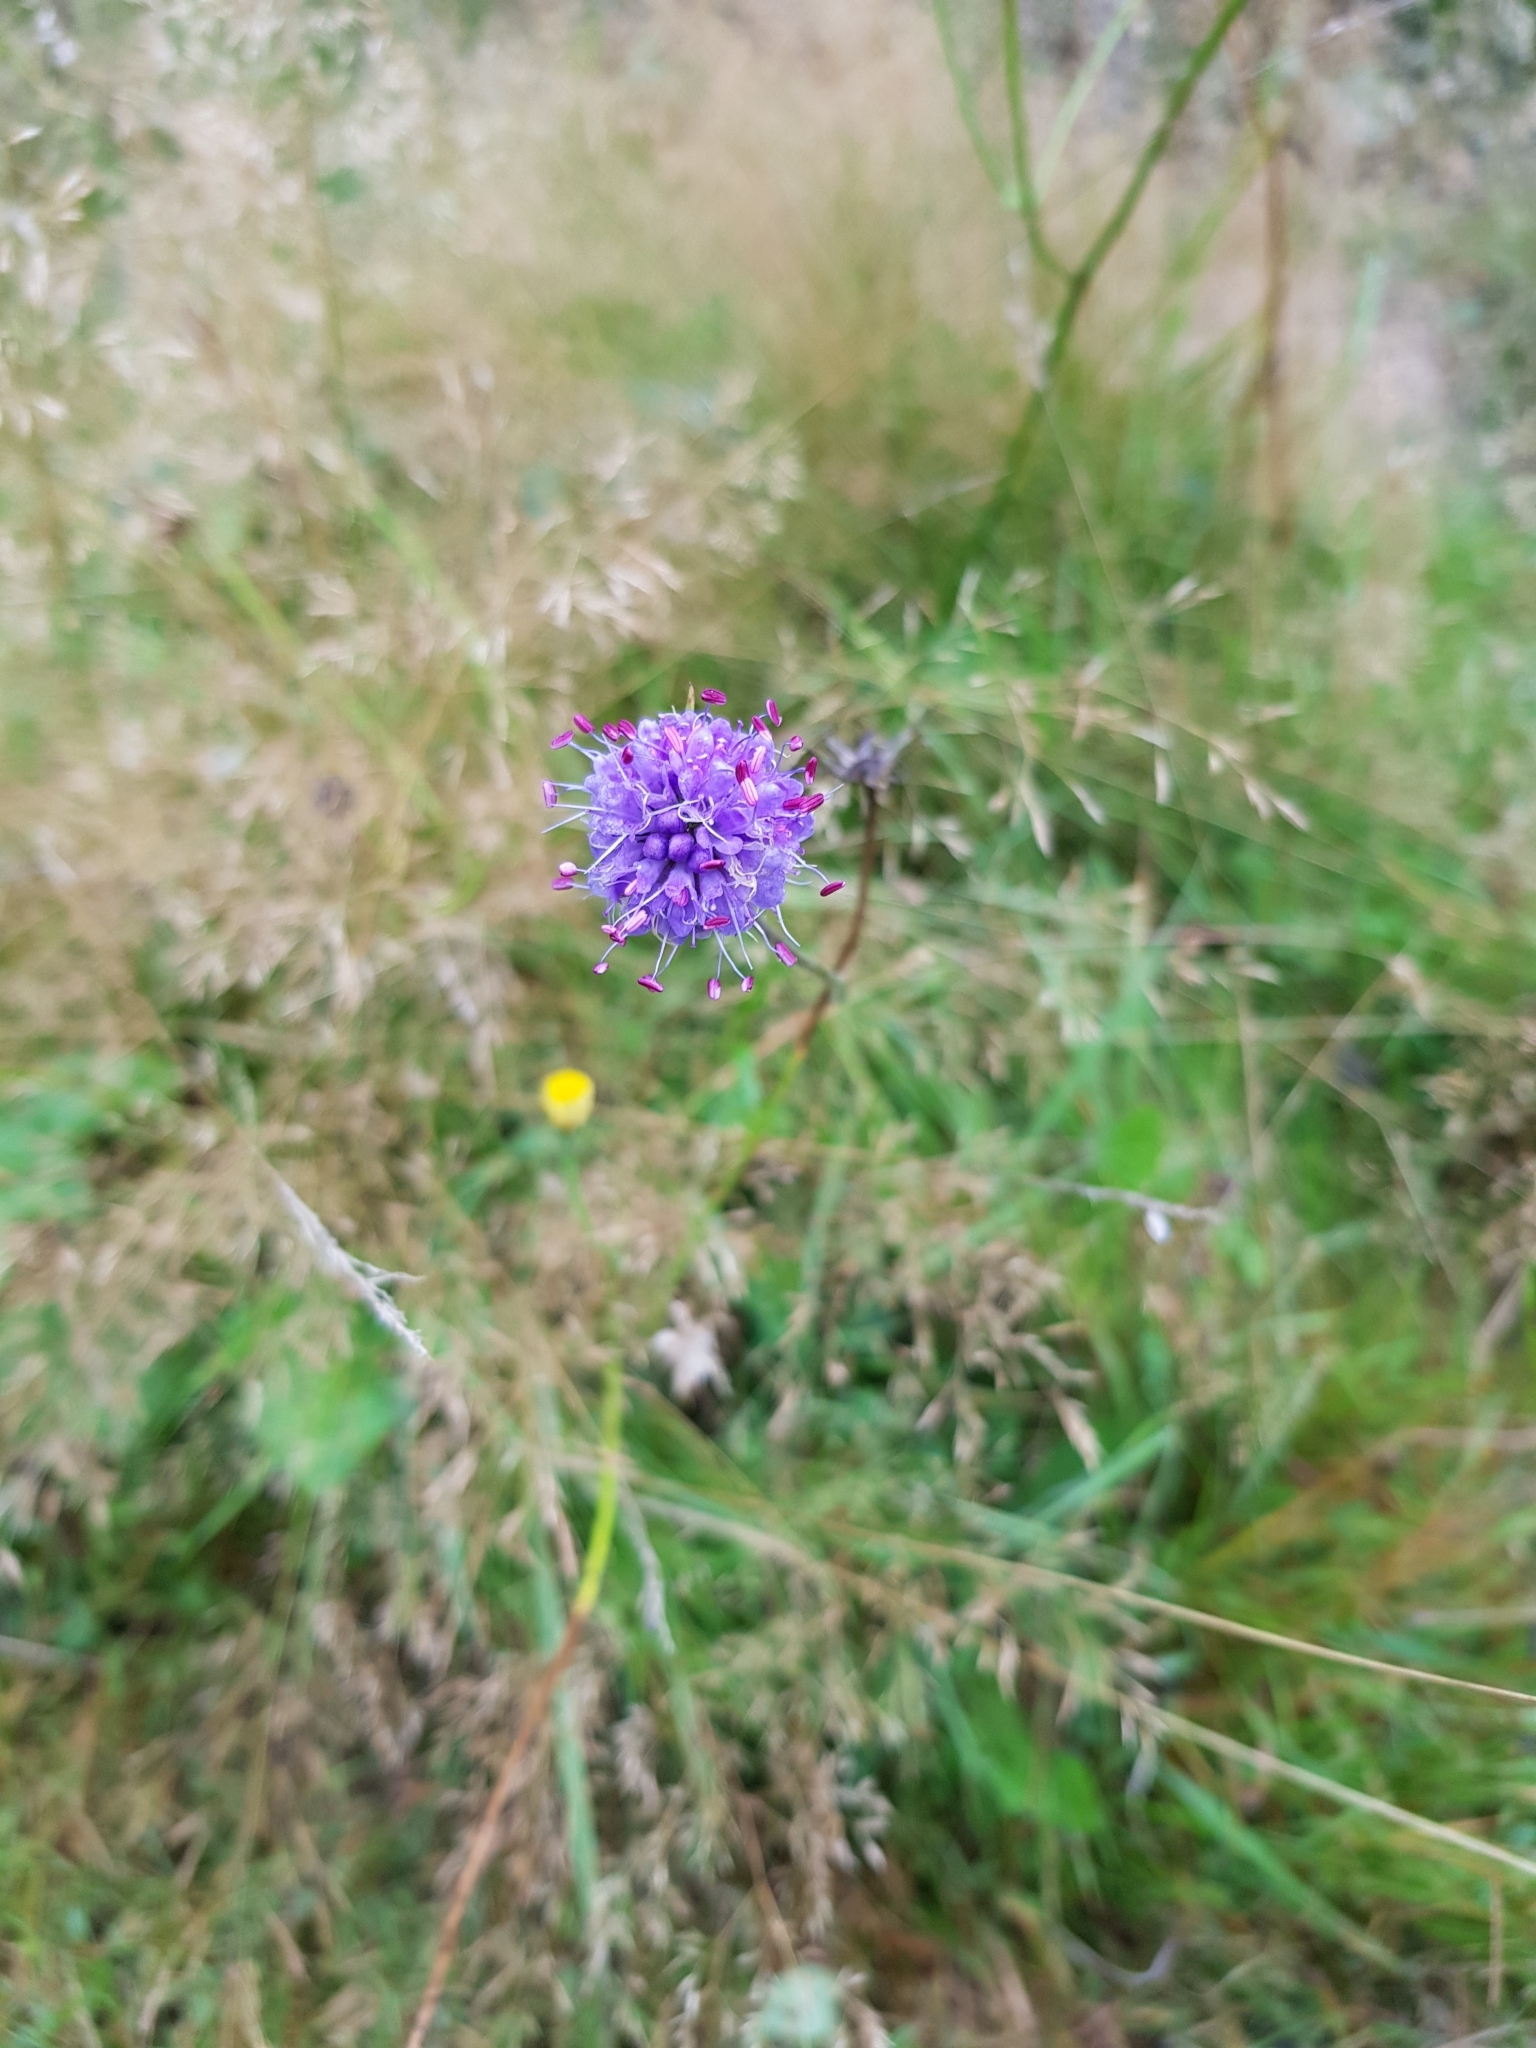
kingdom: Plantae
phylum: Tracheophyta
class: Magnoliopsida
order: Dipsacales
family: Caprifoliaceae
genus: Succisa
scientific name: Succisa pratensis
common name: Devil's-bit
